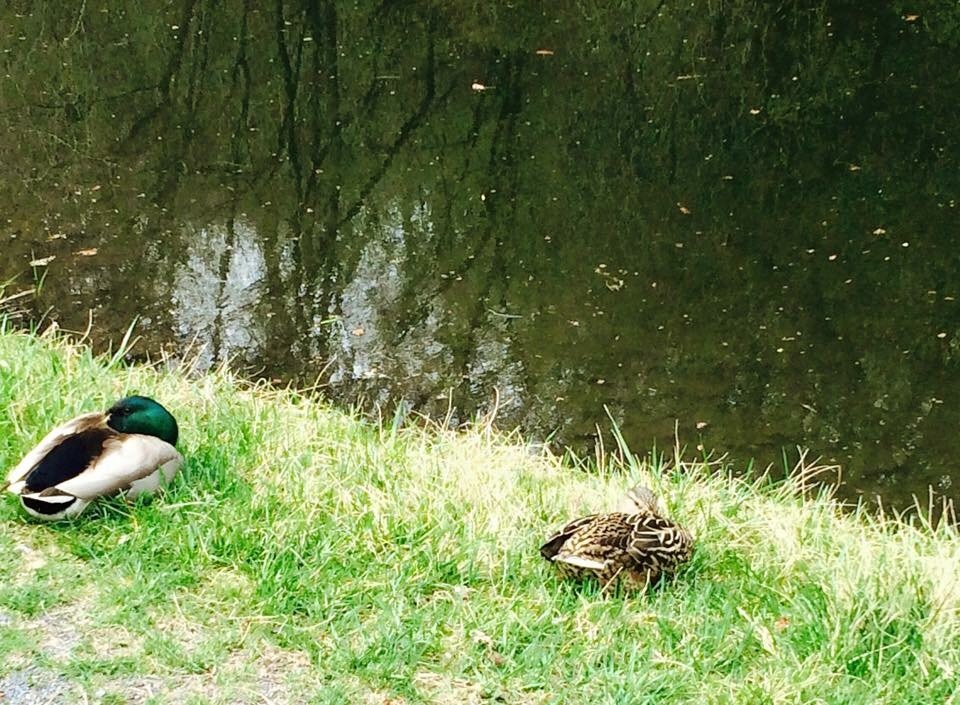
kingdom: Animalia
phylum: Chordata
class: Aves
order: Anseriformes
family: Anatidae
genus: Anas
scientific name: Anas platyrhynchos
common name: Mallard
